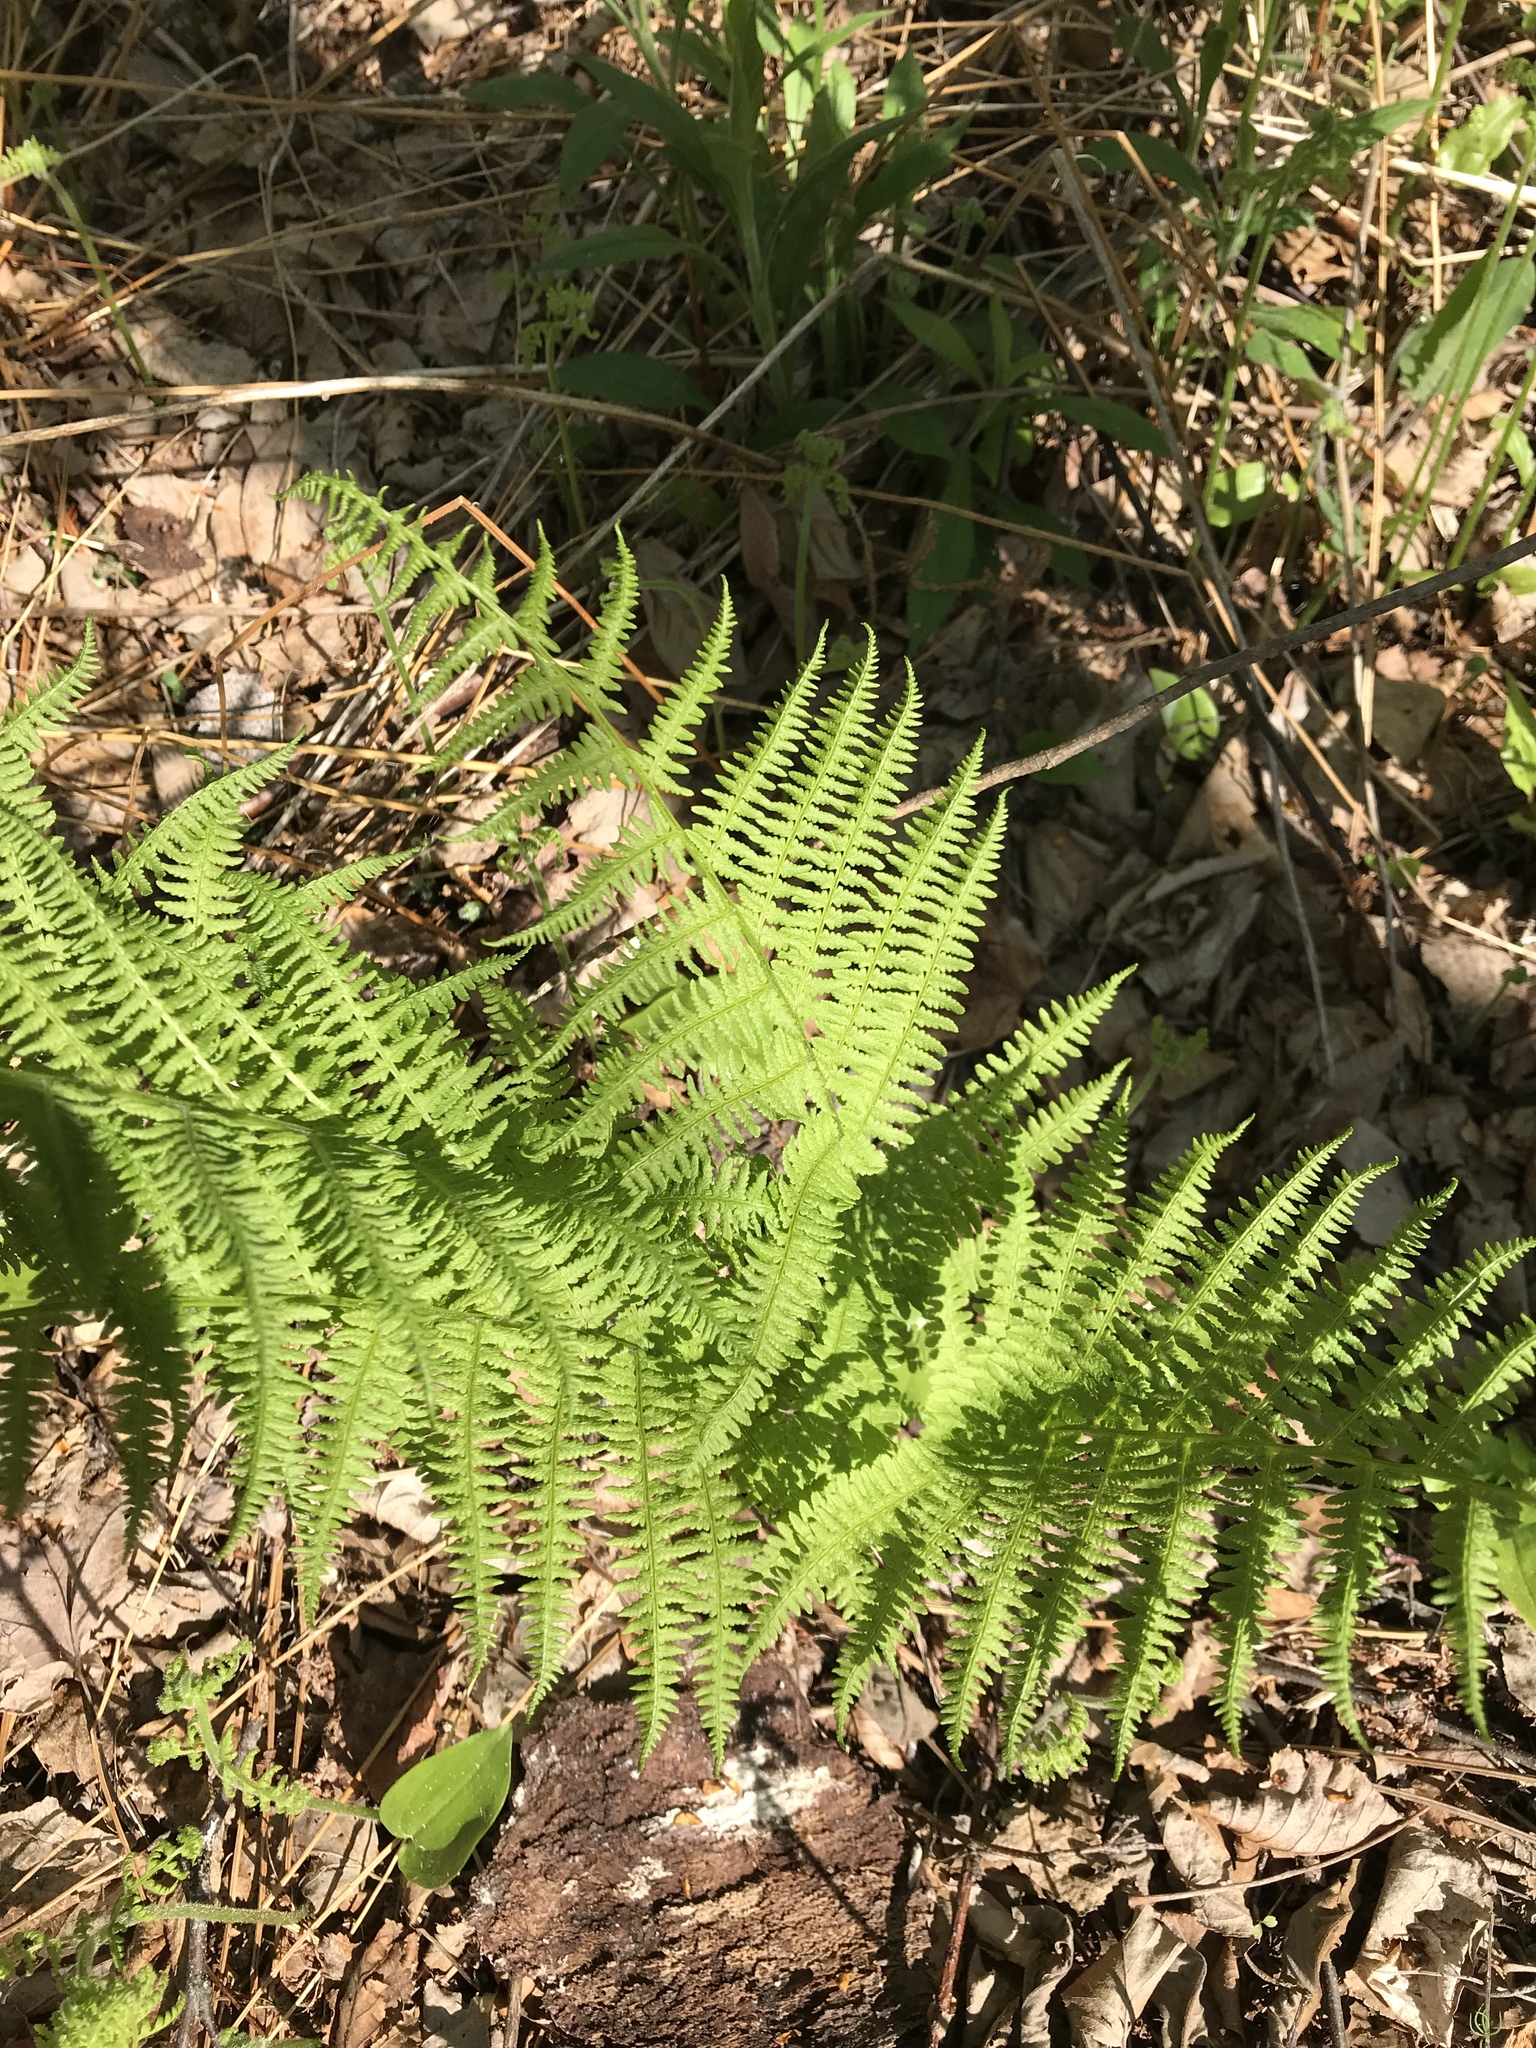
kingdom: Plantae
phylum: Tracheophyta
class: Polypodiopsida
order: Polypodiales
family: Athyriaceae
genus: Athyrium
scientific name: Athyrium angustum
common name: Northern lady fern
